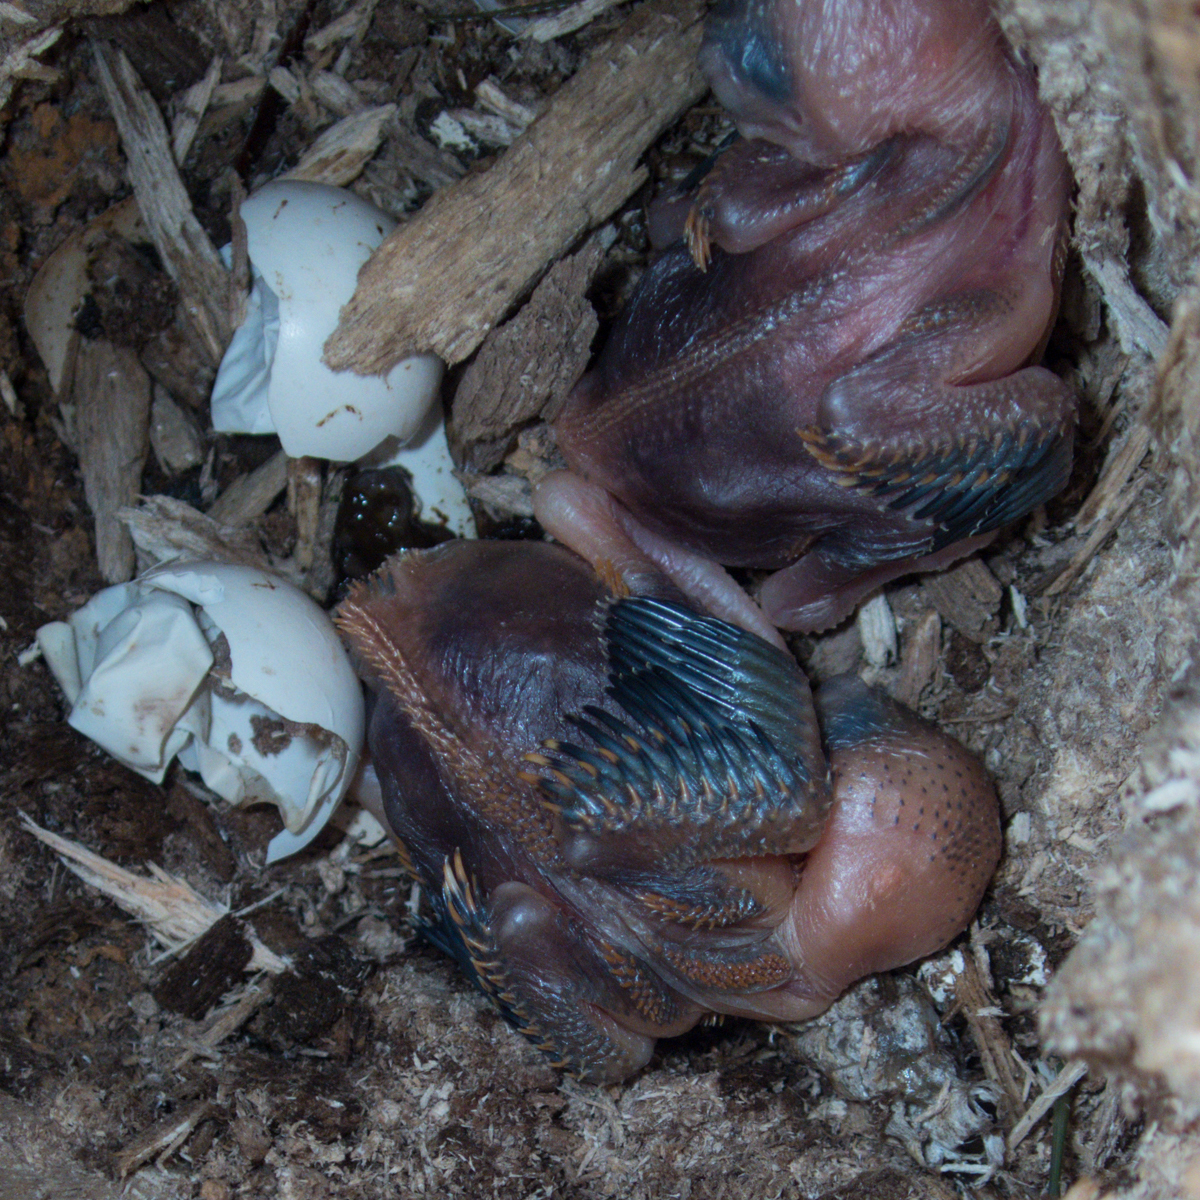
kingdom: Animalia
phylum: Chordata
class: Aves
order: Trogoniformes
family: Trogonidae
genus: Harpactes
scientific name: Harpactes erythrocephalus
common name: Red-headed trogon
